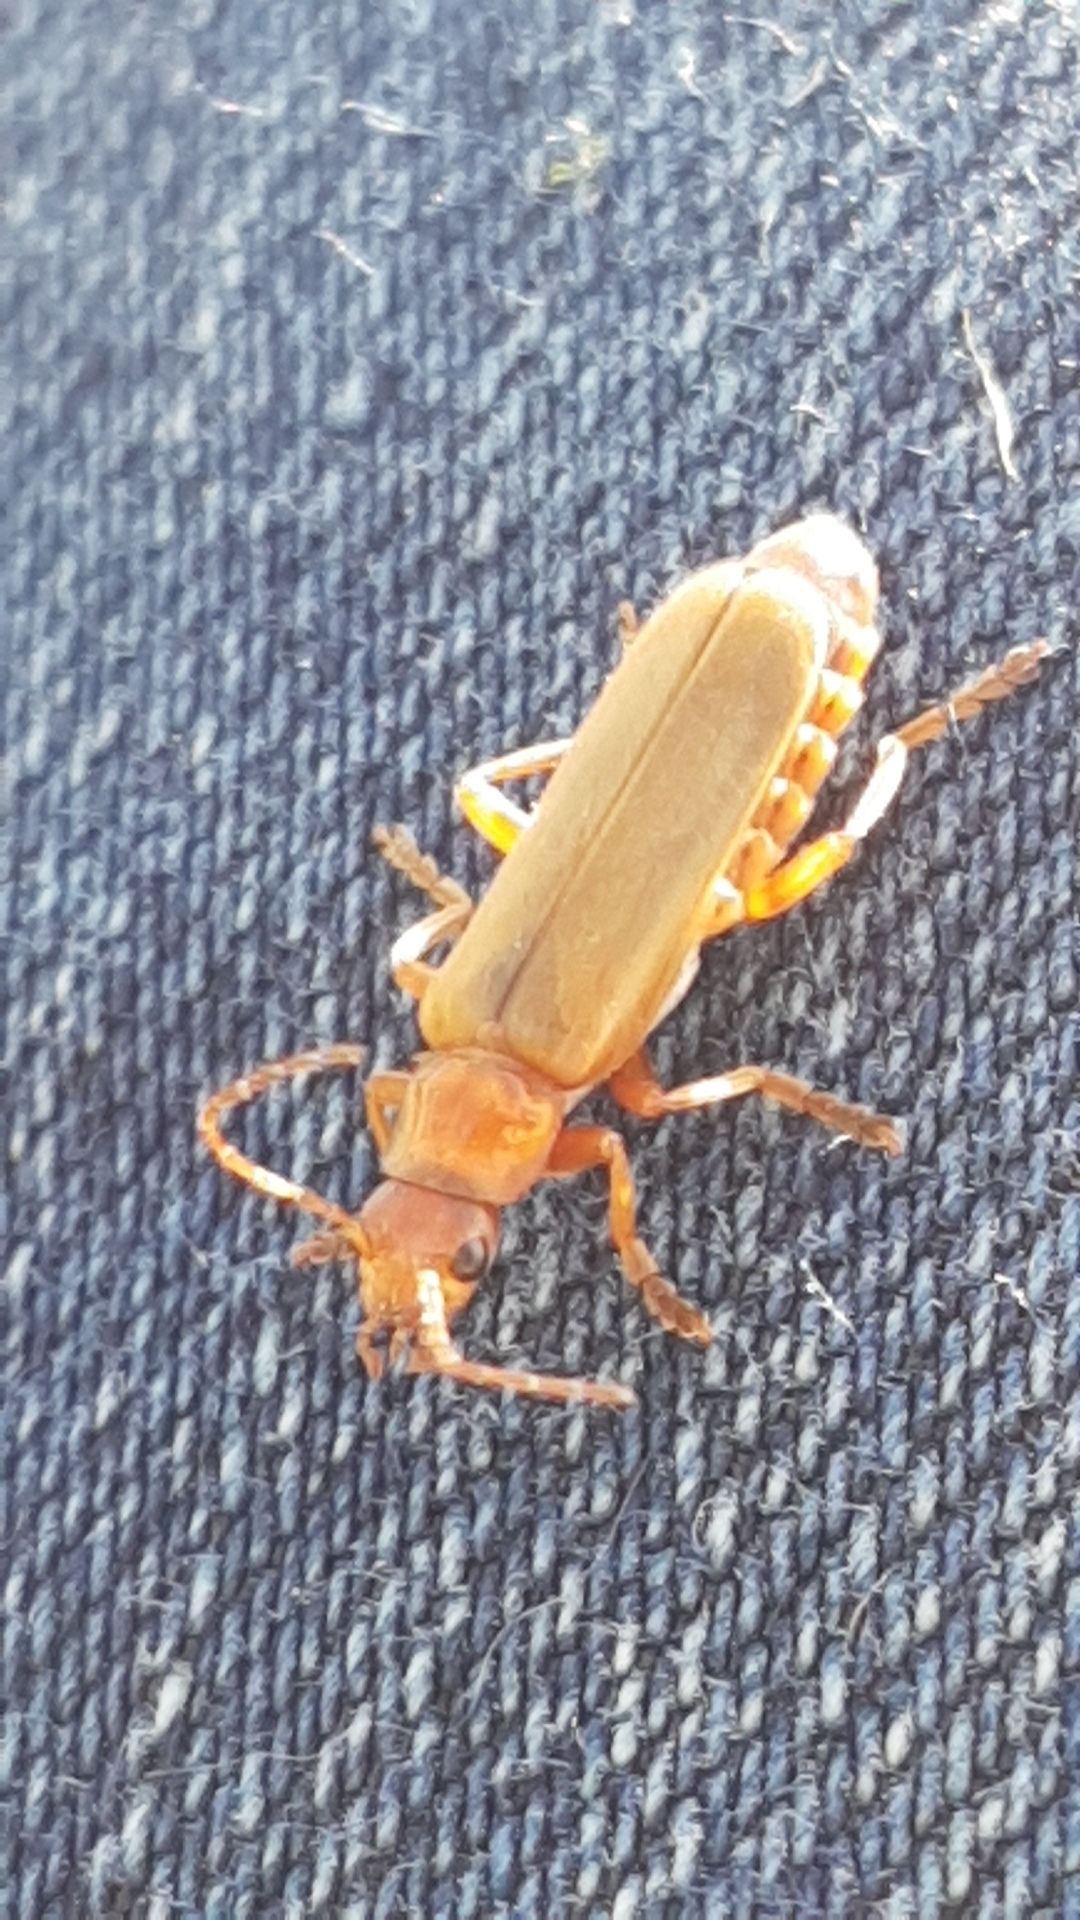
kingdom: Animalia
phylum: Arthropoda
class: Insecta
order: Coleoptera
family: Cantharidae
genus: Cantharis
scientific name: Cantharis rufa
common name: Red-spotted soldier beetle
